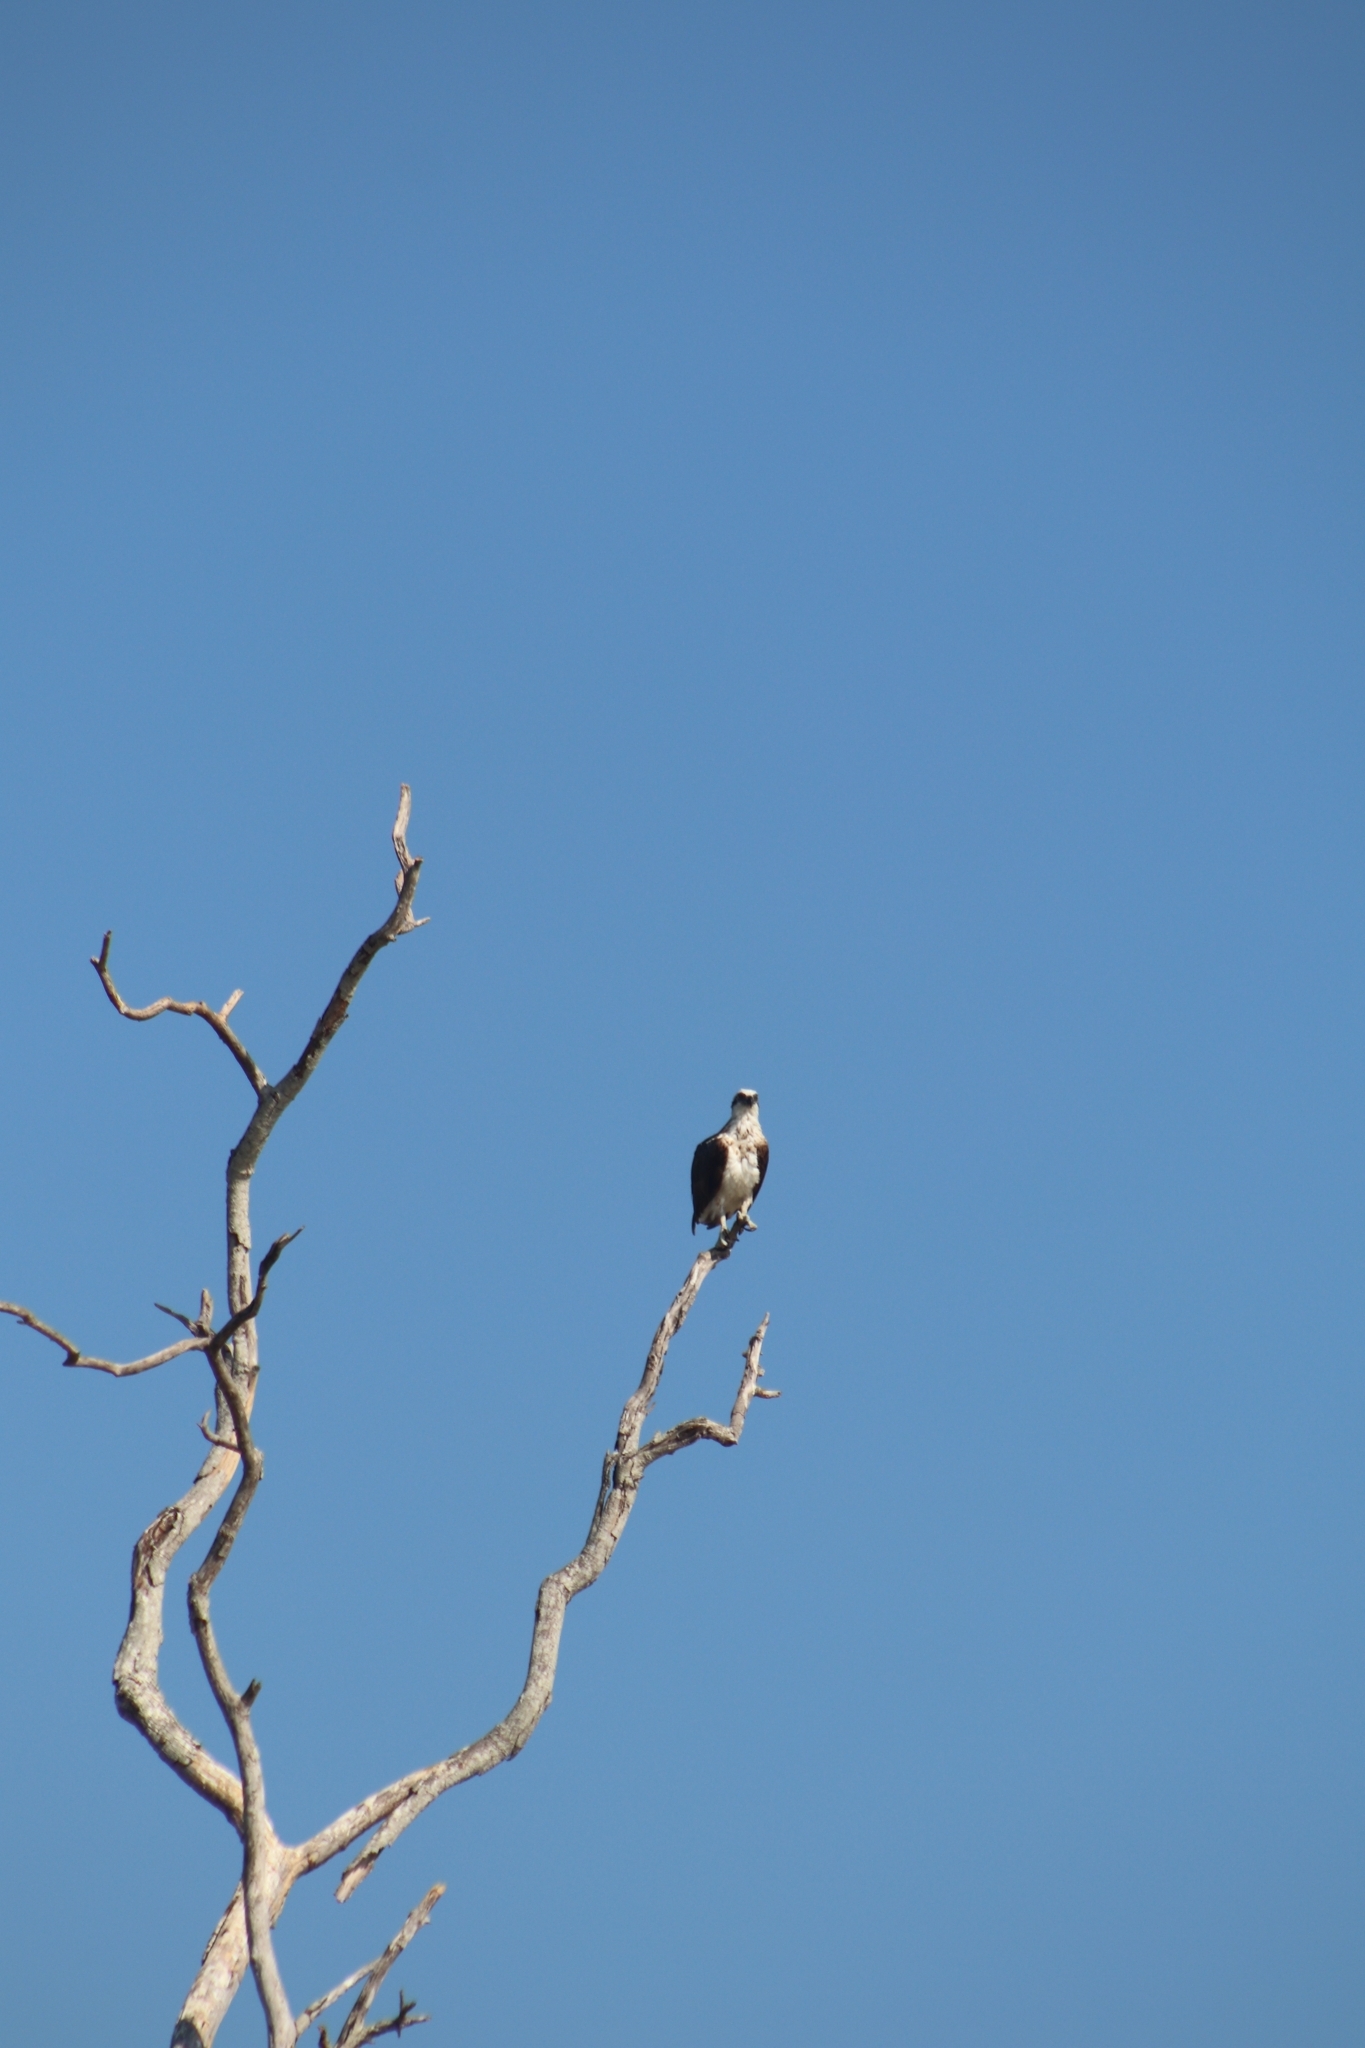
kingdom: Animalia
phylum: Chordata
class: Aves
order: Accipitriformes
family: Pandionidae
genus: Pandion
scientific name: Pandion haliaetus
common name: Osprey
